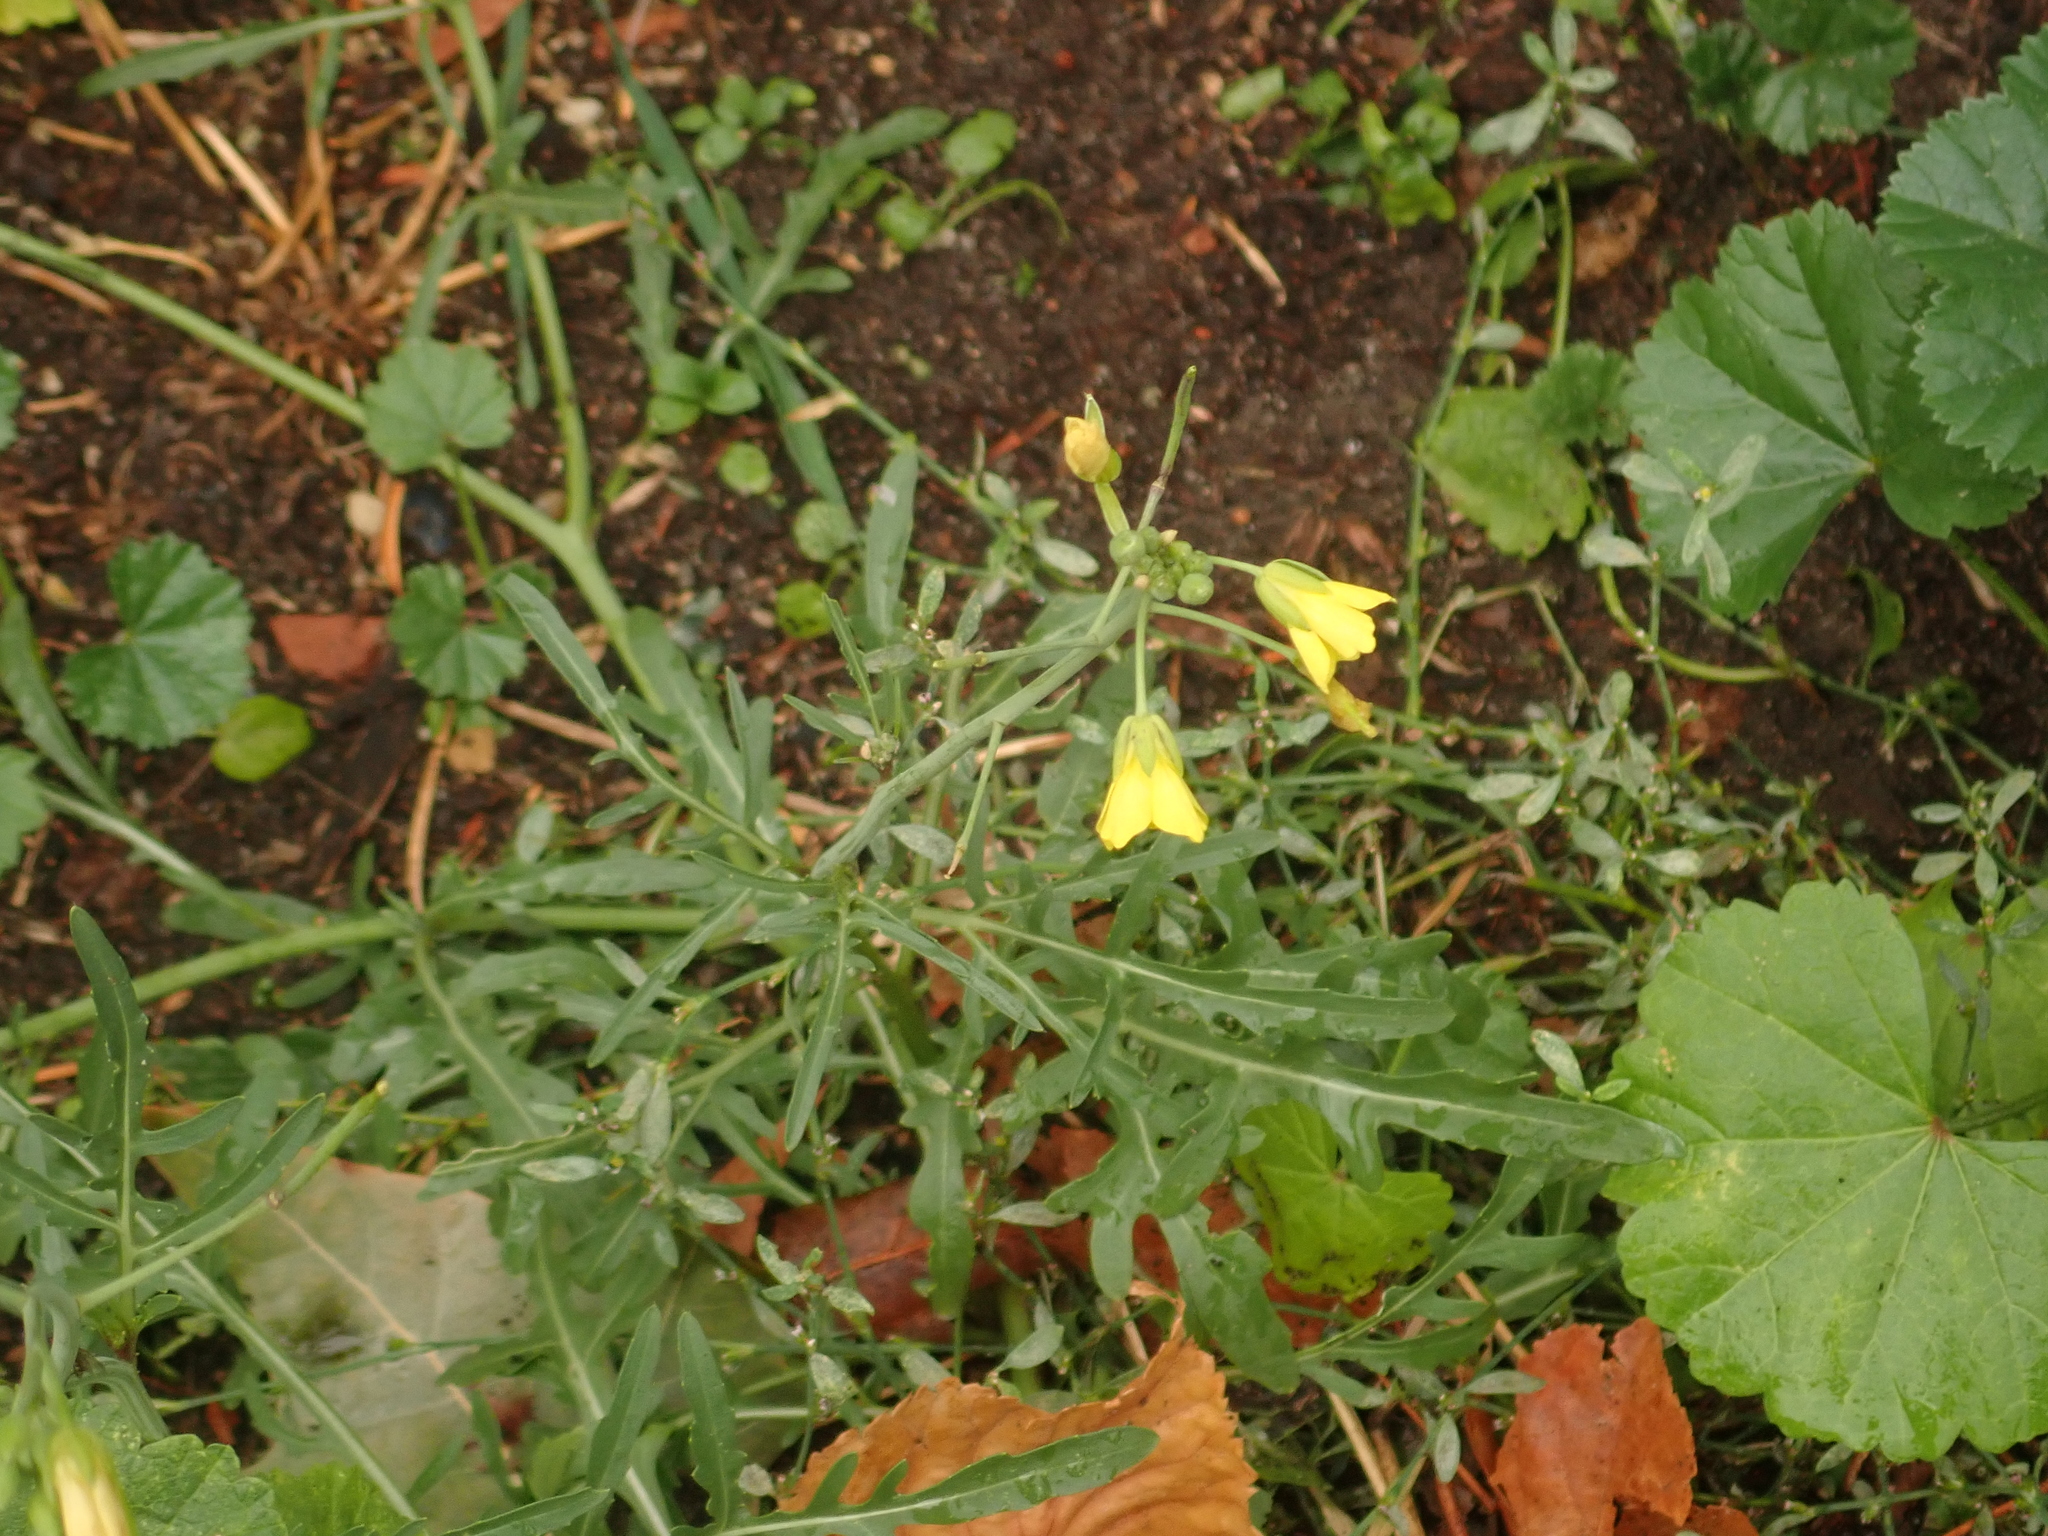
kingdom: Plantae
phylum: Tracheophyta
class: Magnoliopsida
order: Brassicales
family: Brassicaceae
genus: Diplotaxis
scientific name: Diplotaxis tenuifolia
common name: Perennial wall-rocket
